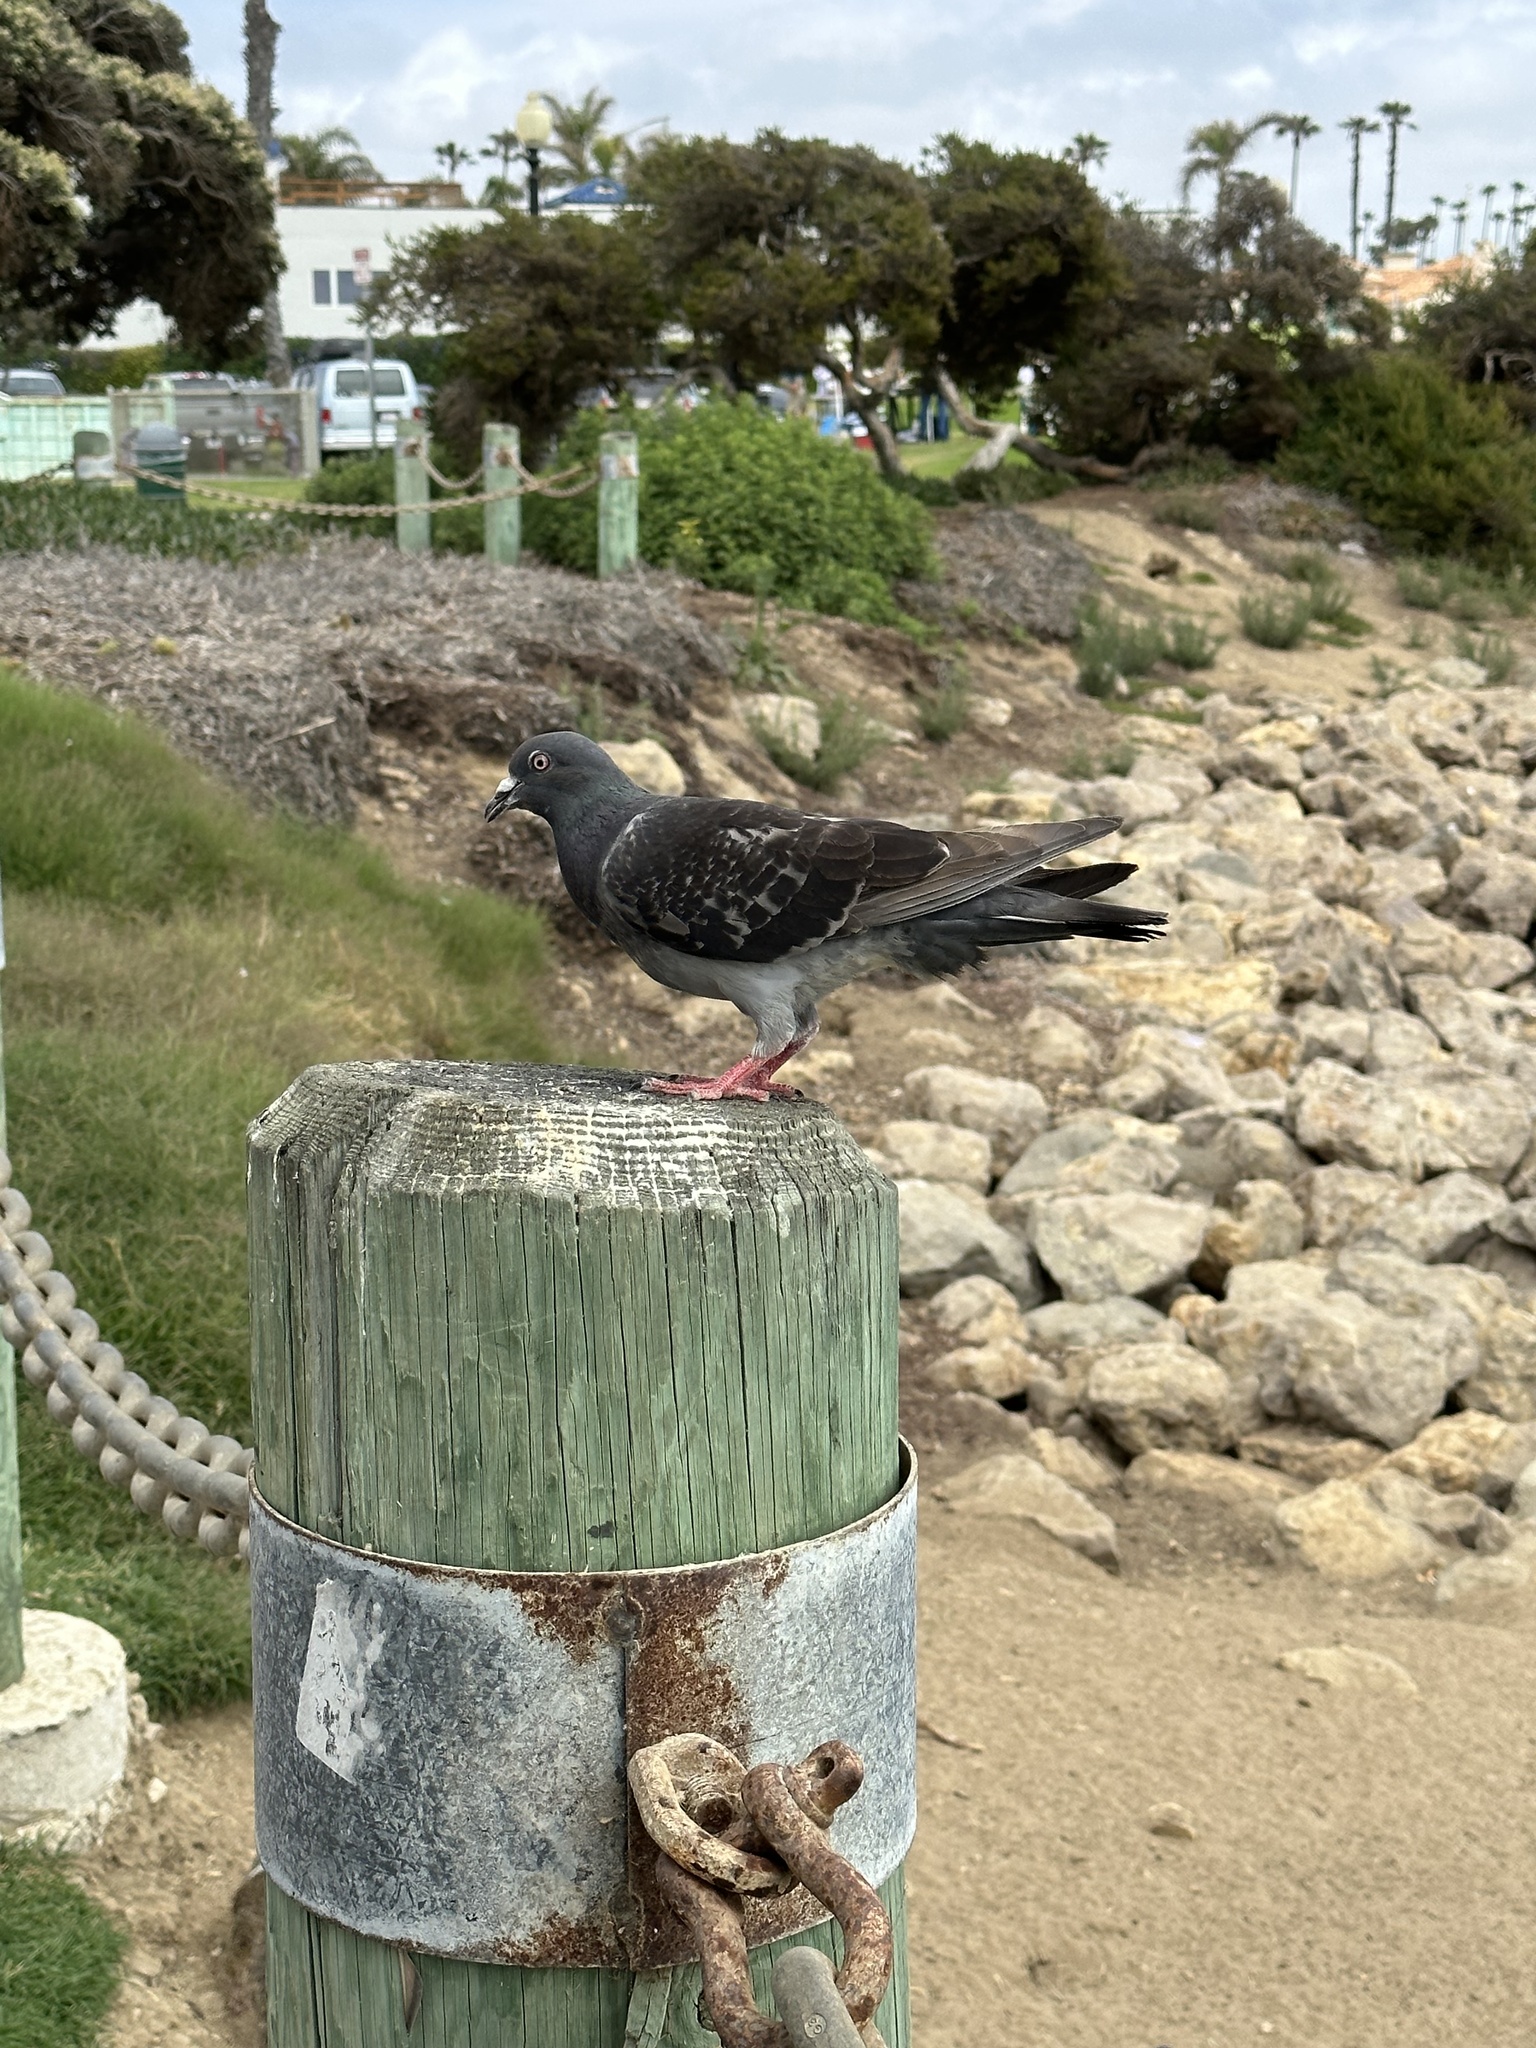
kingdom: Animalia
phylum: Chordata
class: Aves
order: Columbiformes
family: Columbidae
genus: Columba
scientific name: Columba livia
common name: Rock pigeon
